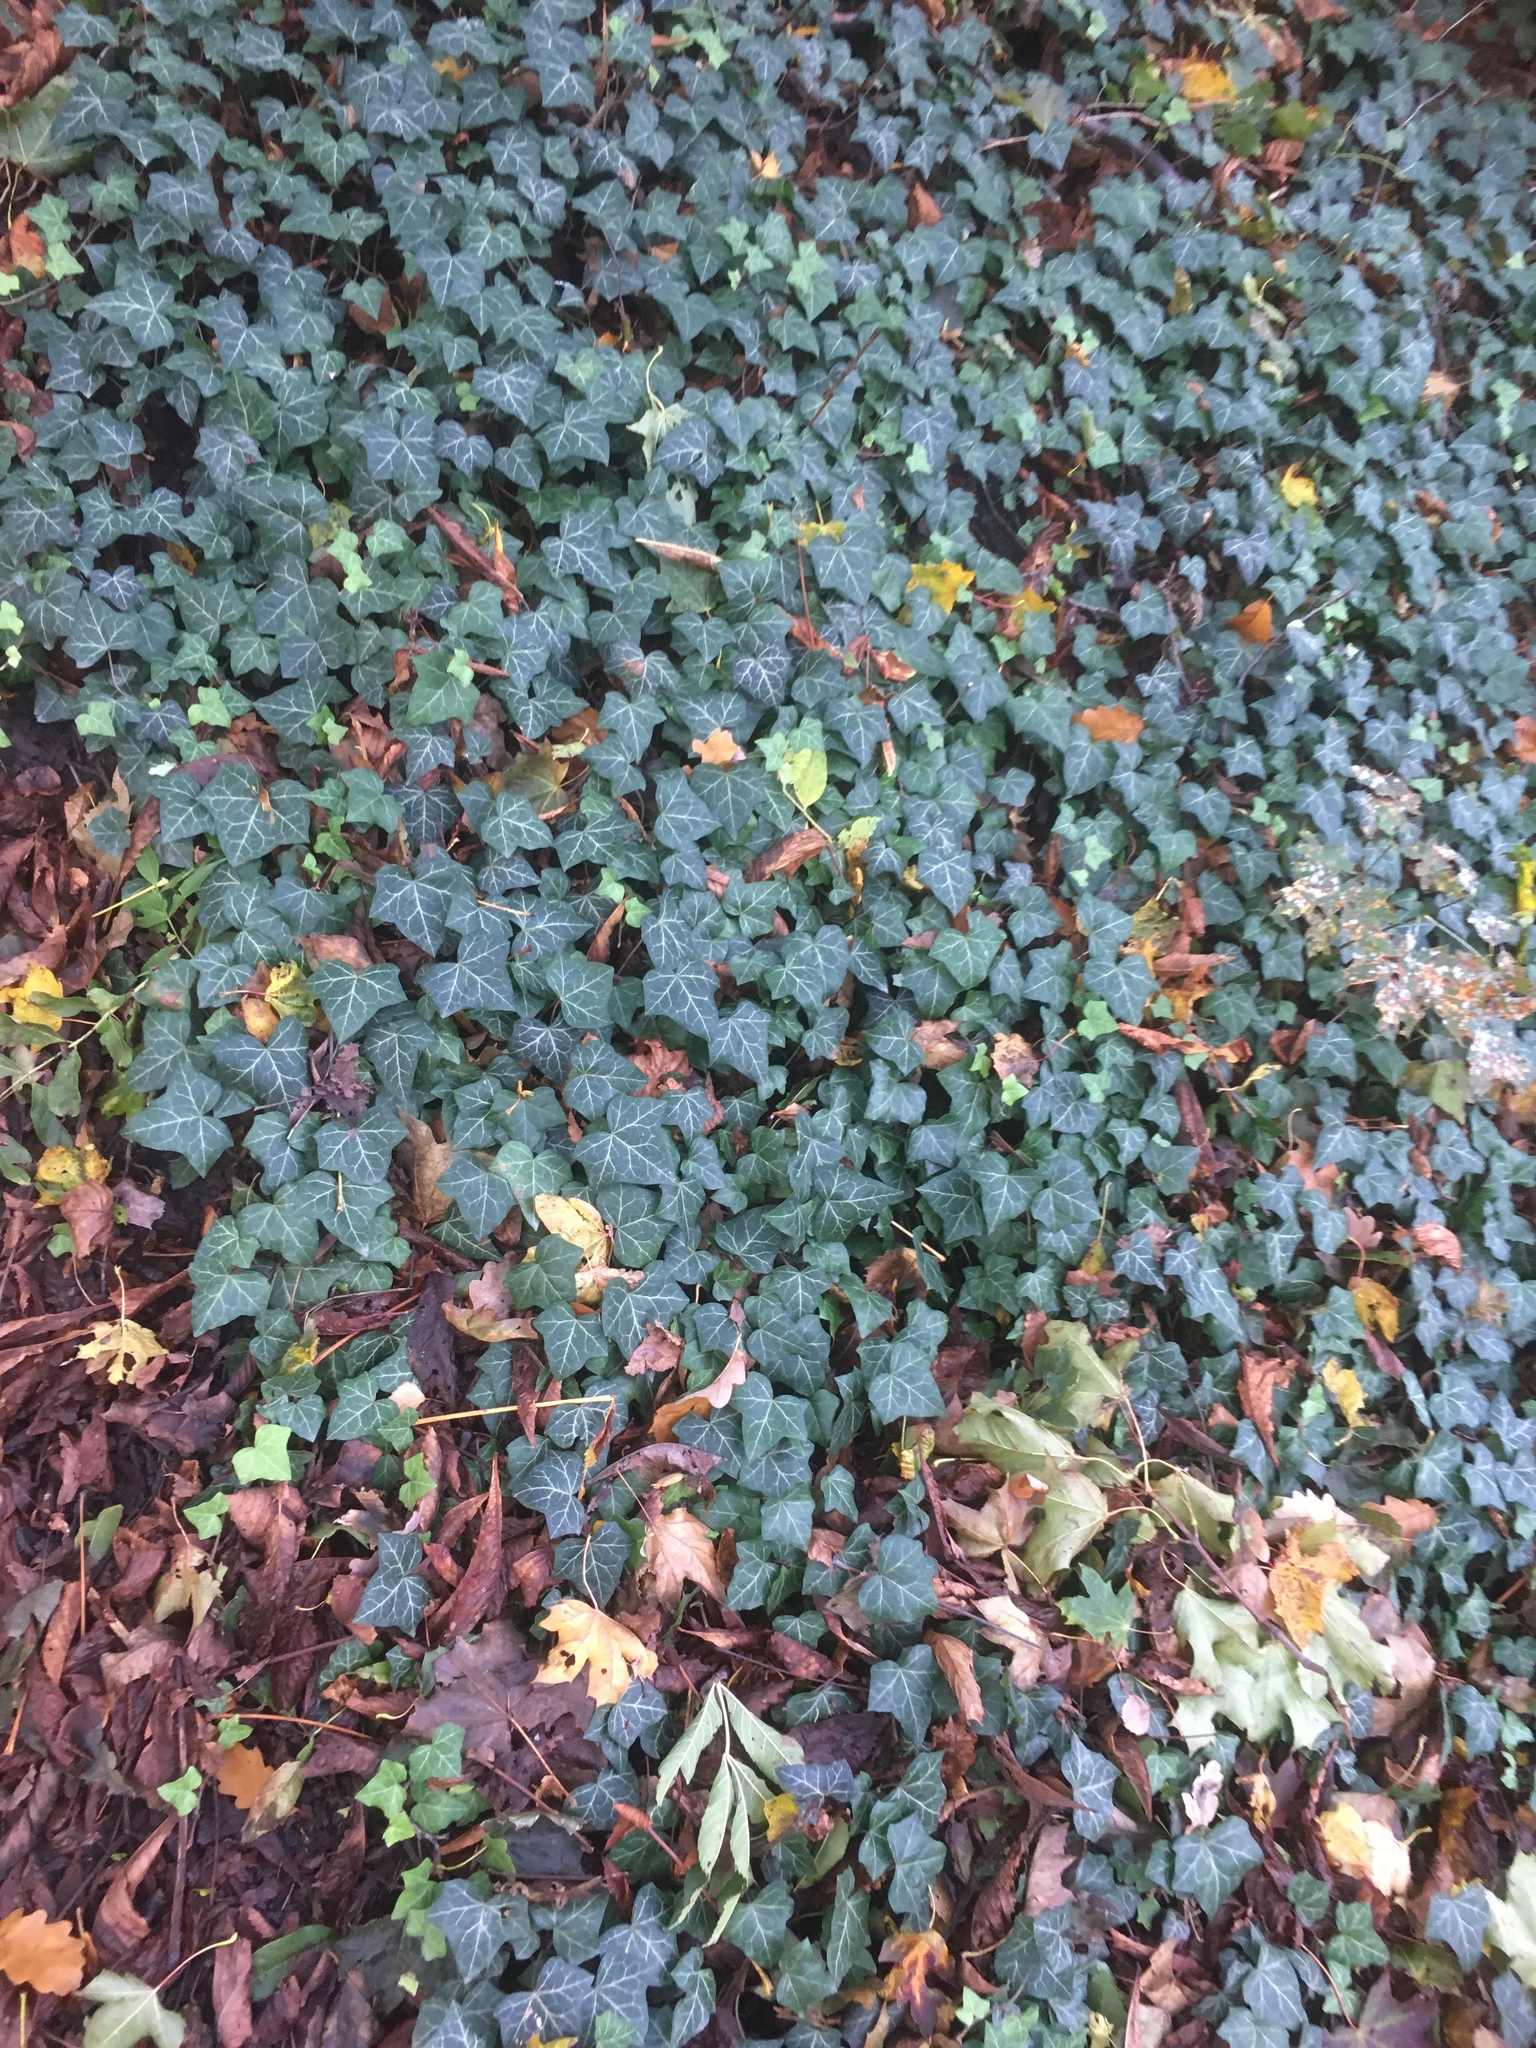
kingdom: Plantae
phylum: Tracheophyta
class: Magnoliopsida
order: Apiales
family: Araliaceae
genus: Hedera
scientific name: Hedera helix
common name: Ivy
